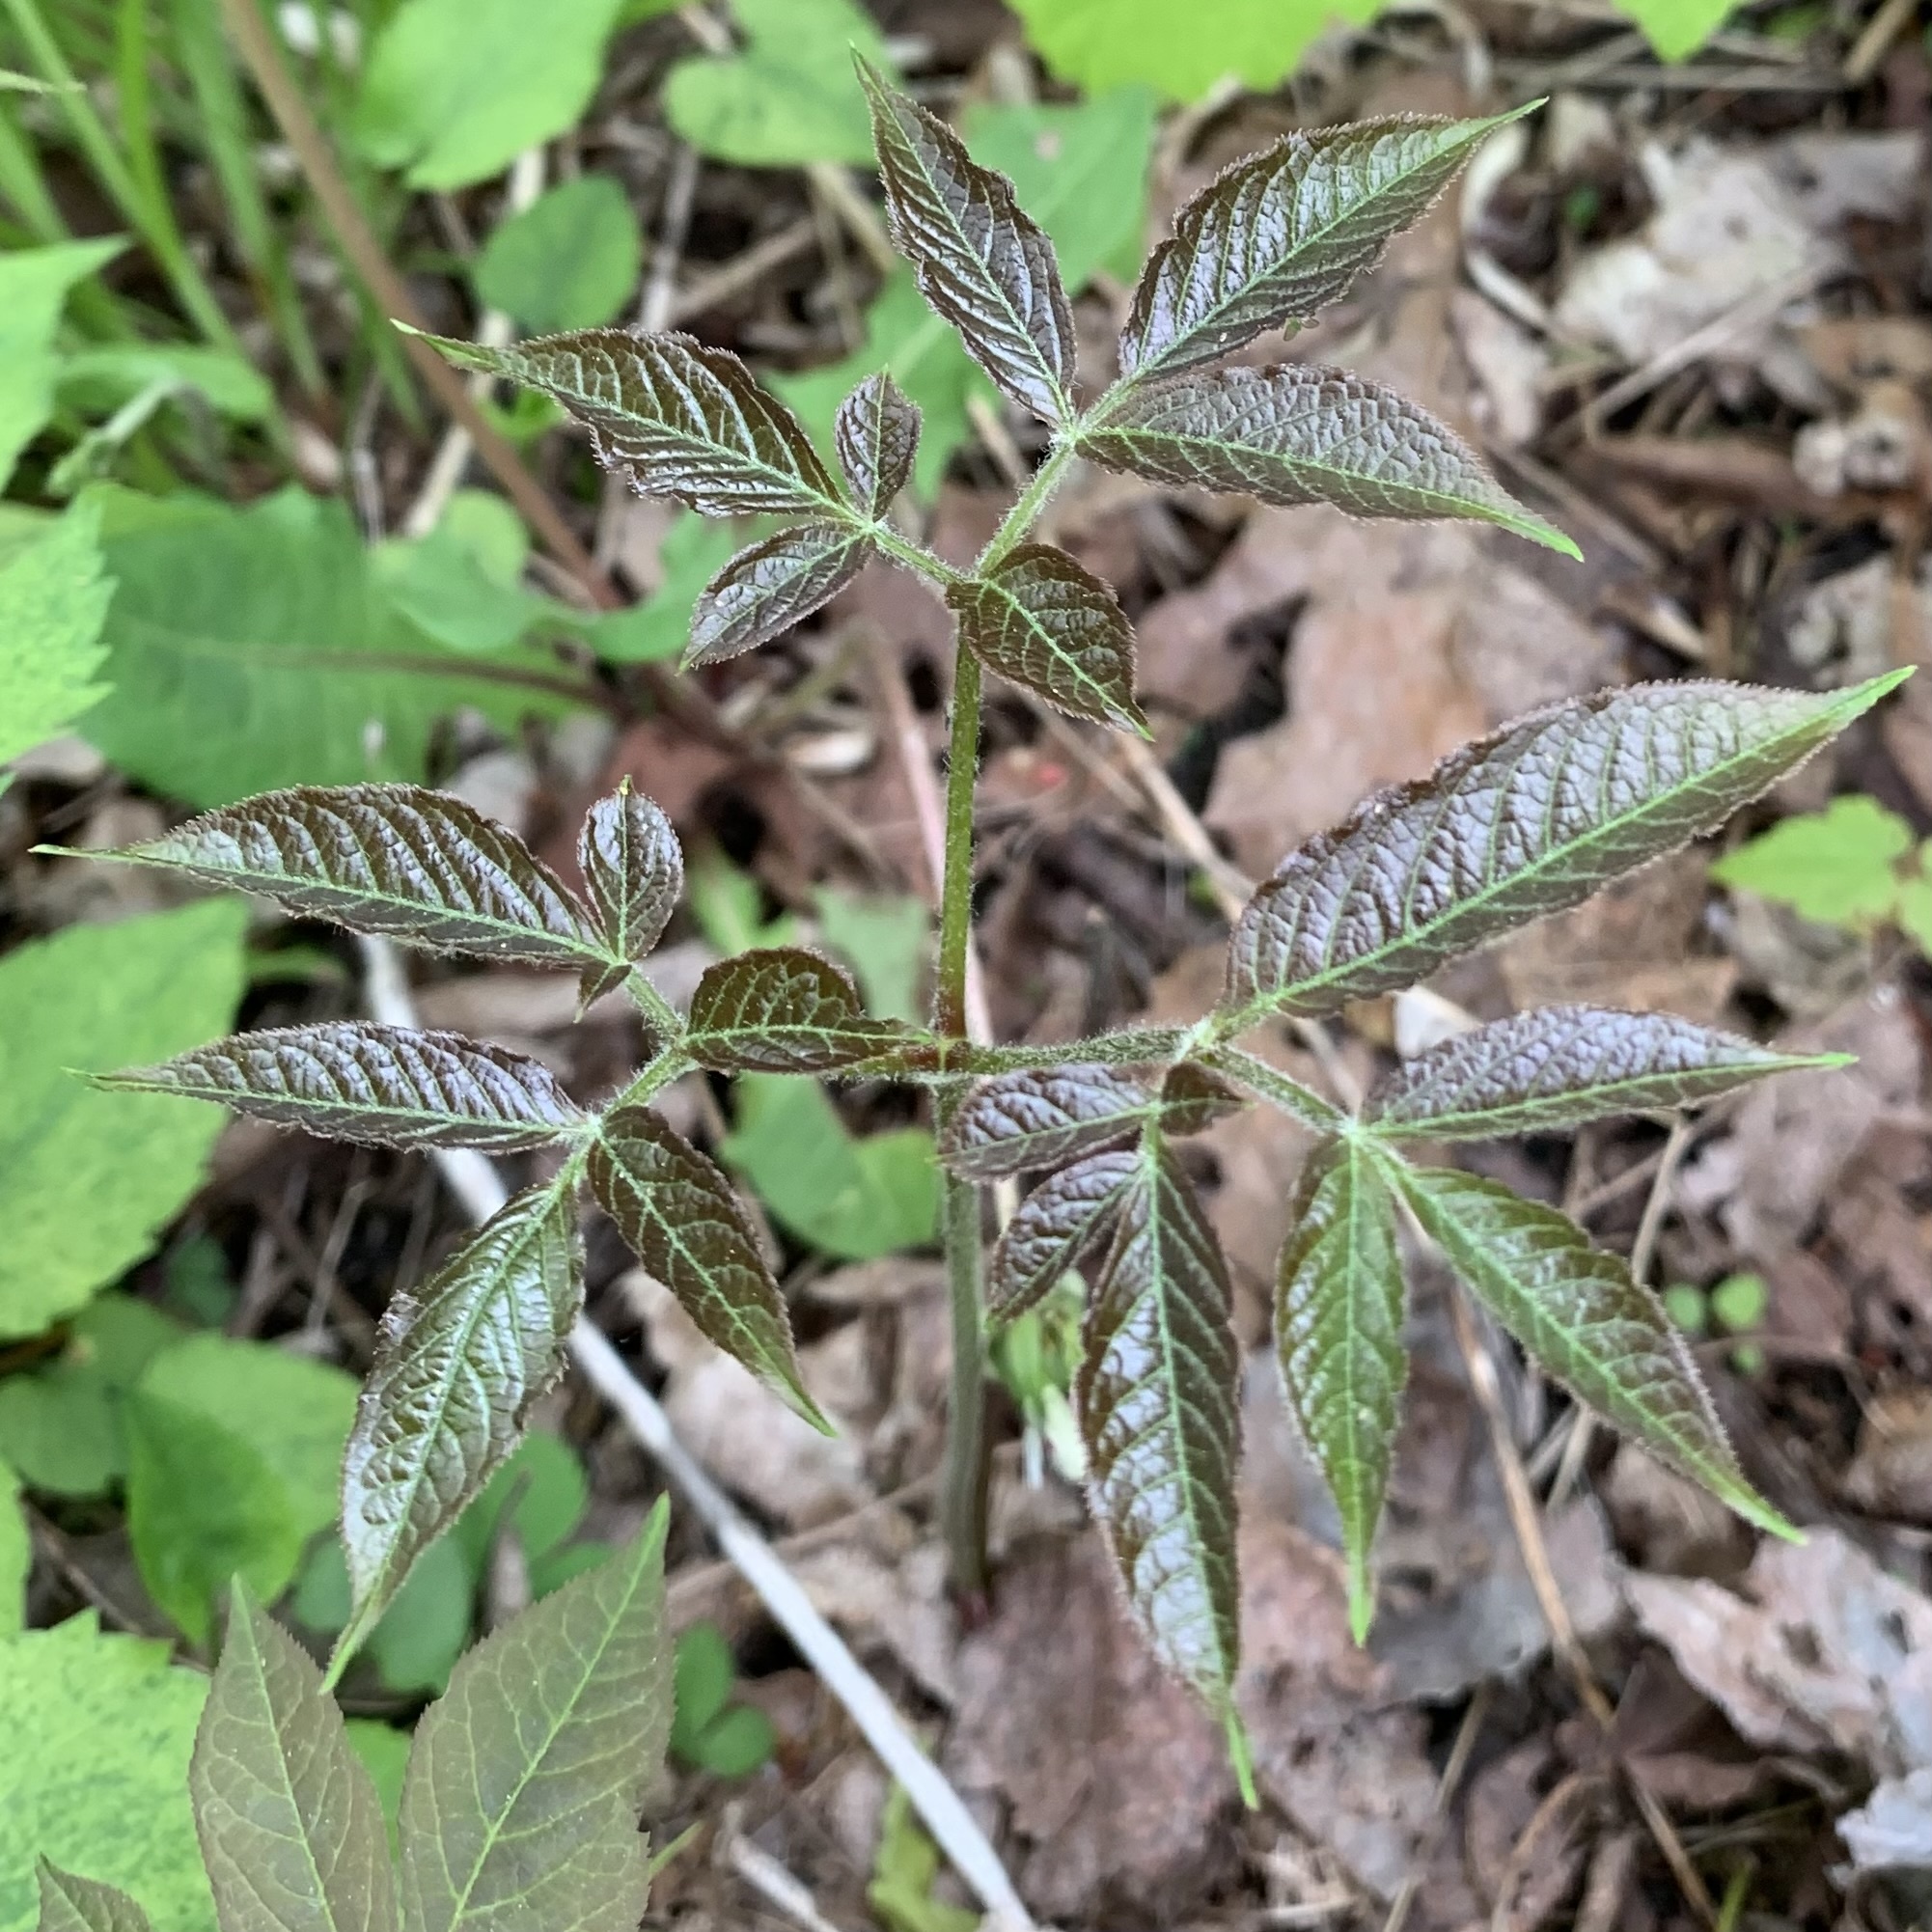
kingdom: Plantae
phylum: Tracheophyta
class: Magnoliopsida
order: Apiales
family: Araliaceae
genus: Aralia
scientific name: Aralia nudicaulis
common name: Wild sarsaparilla
